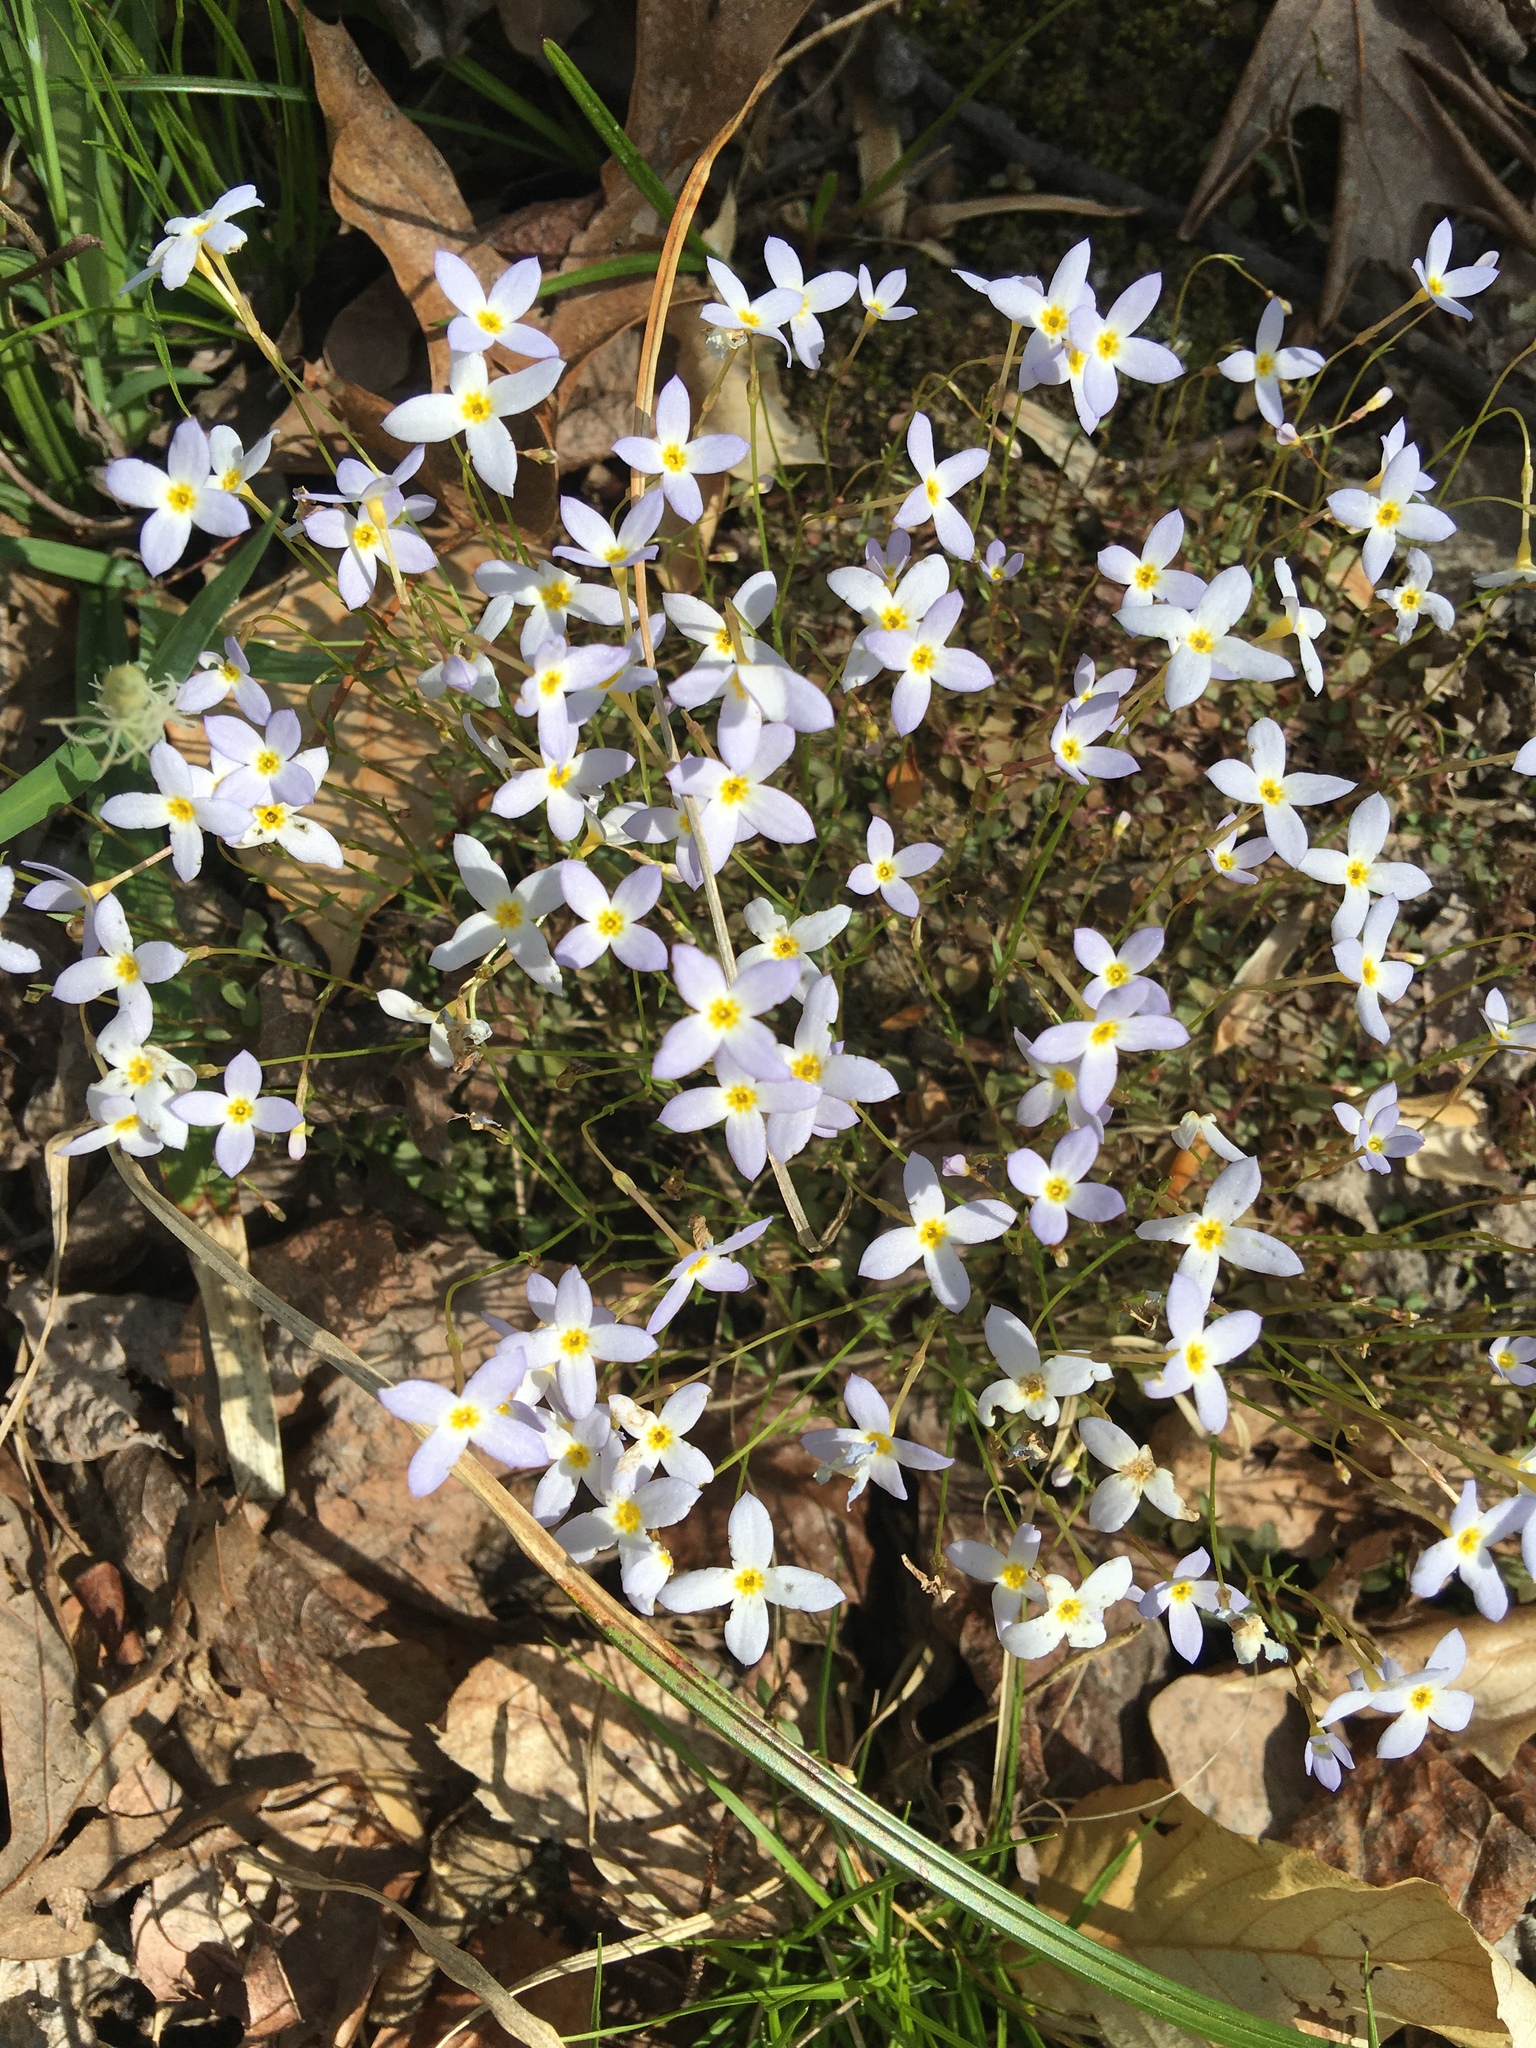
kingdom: Plantae
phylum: Tracheophyta
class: Magnoliopsida
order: Gentianales
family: Rubiaceae
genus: Houstonia
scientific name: Houstonia caerulea
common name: Bluets
